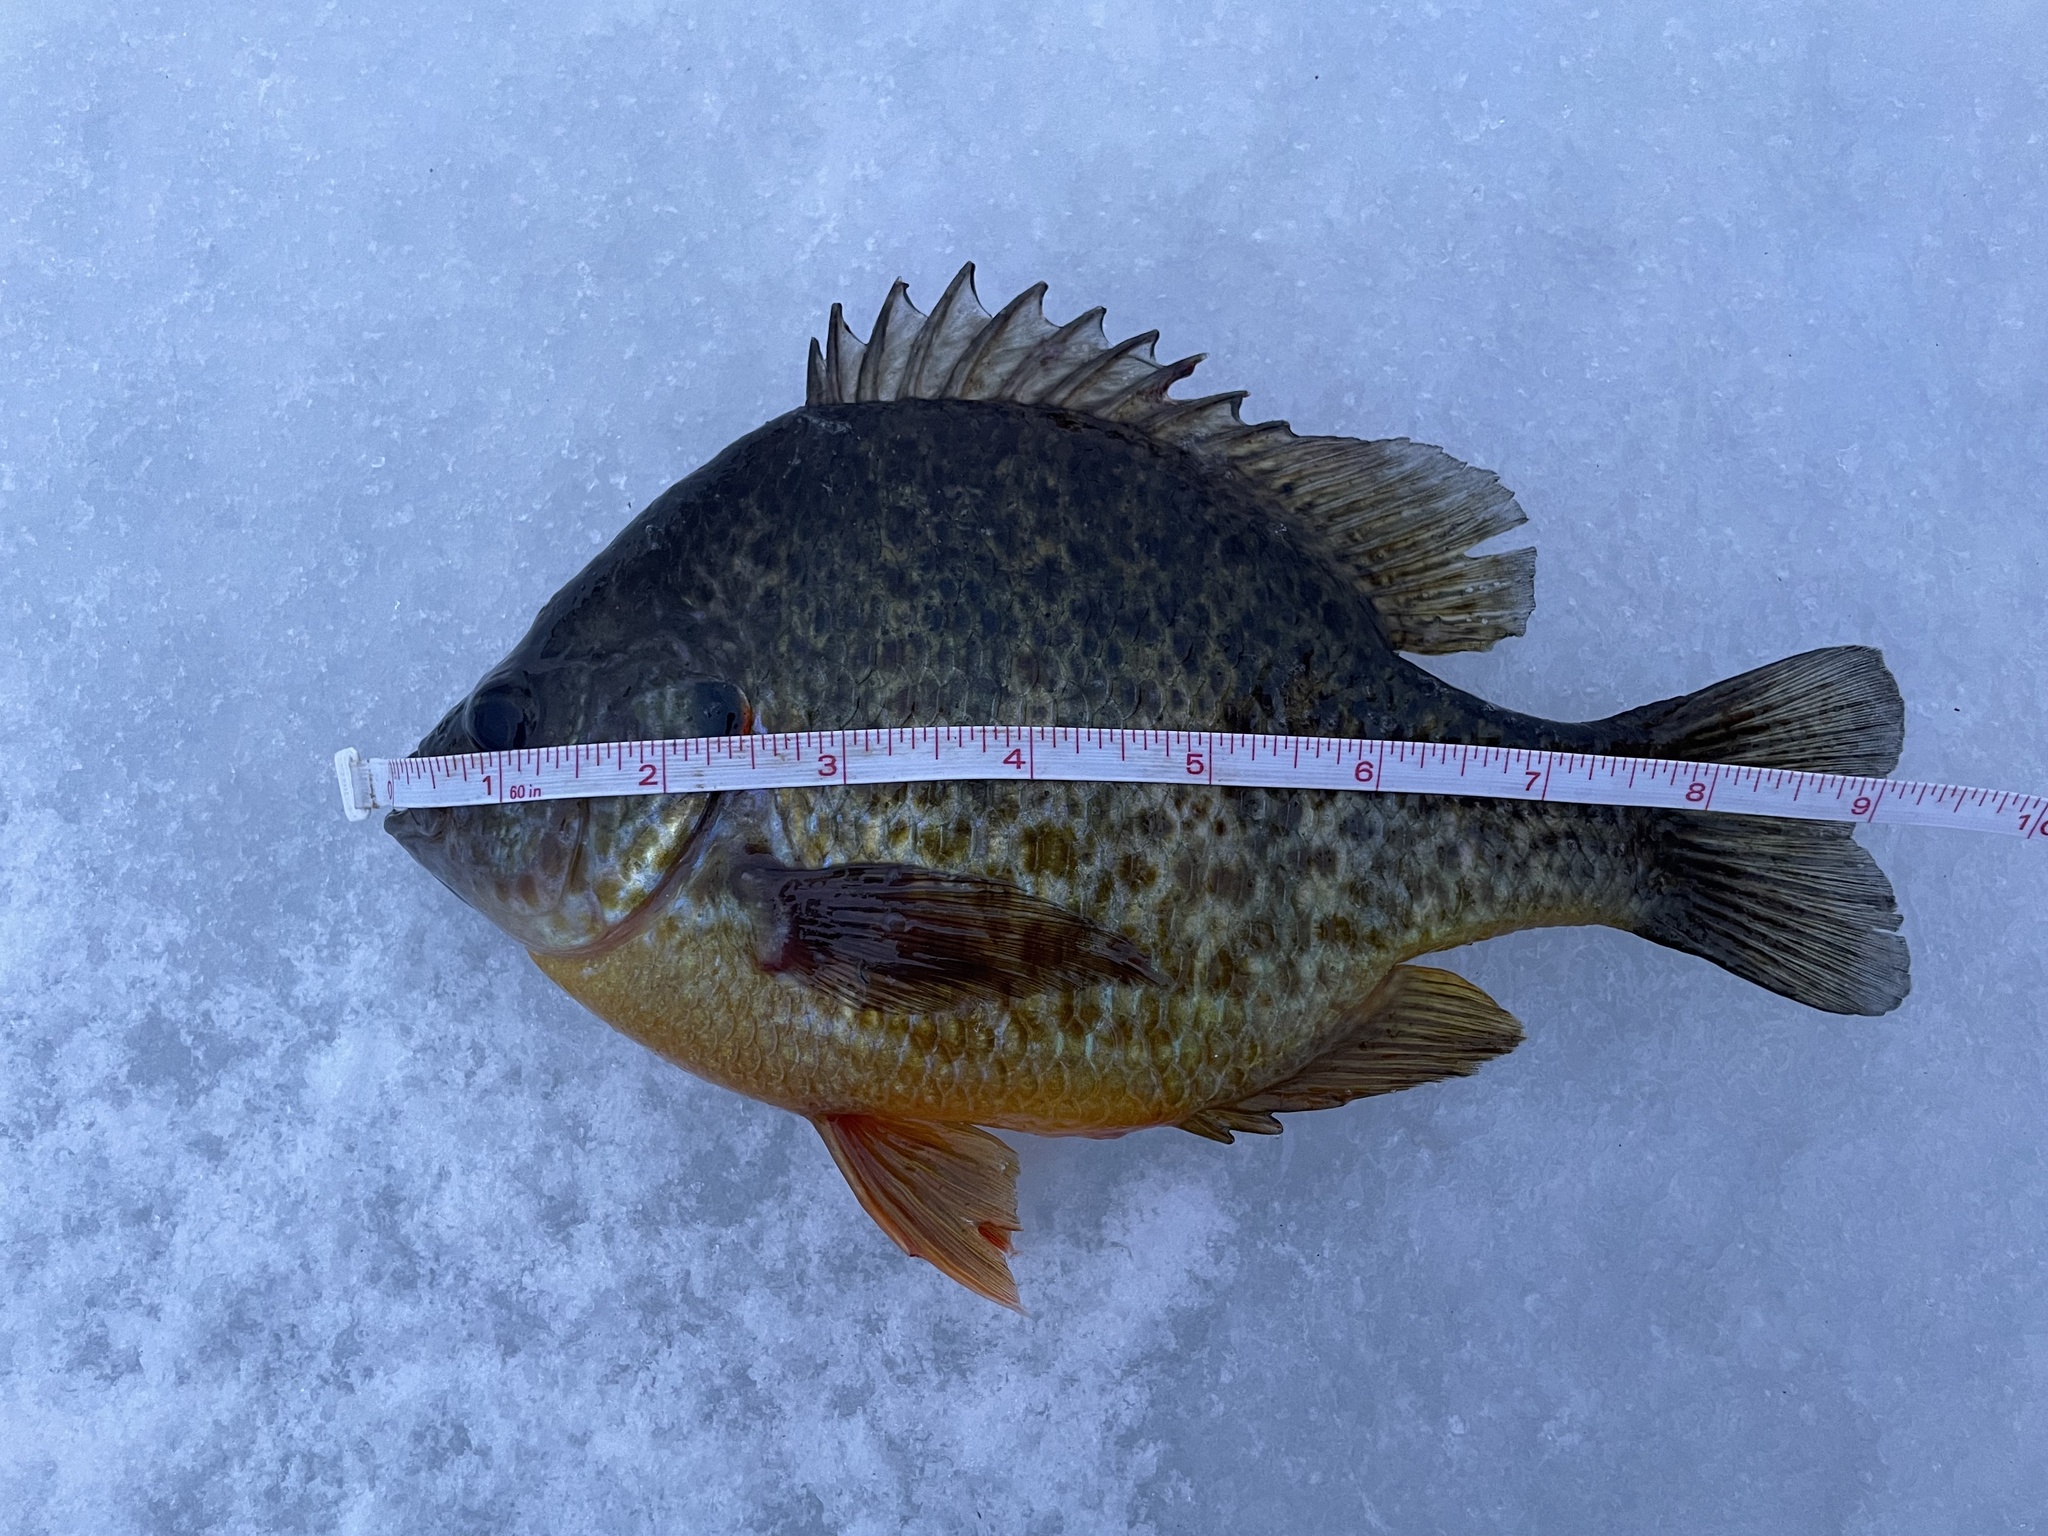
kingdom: Animalia
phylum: Chordata
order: Perciformes
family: Centrarchidae
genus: Lepomis
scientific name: Lepomis gibbosus
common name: Pumpkinseed
